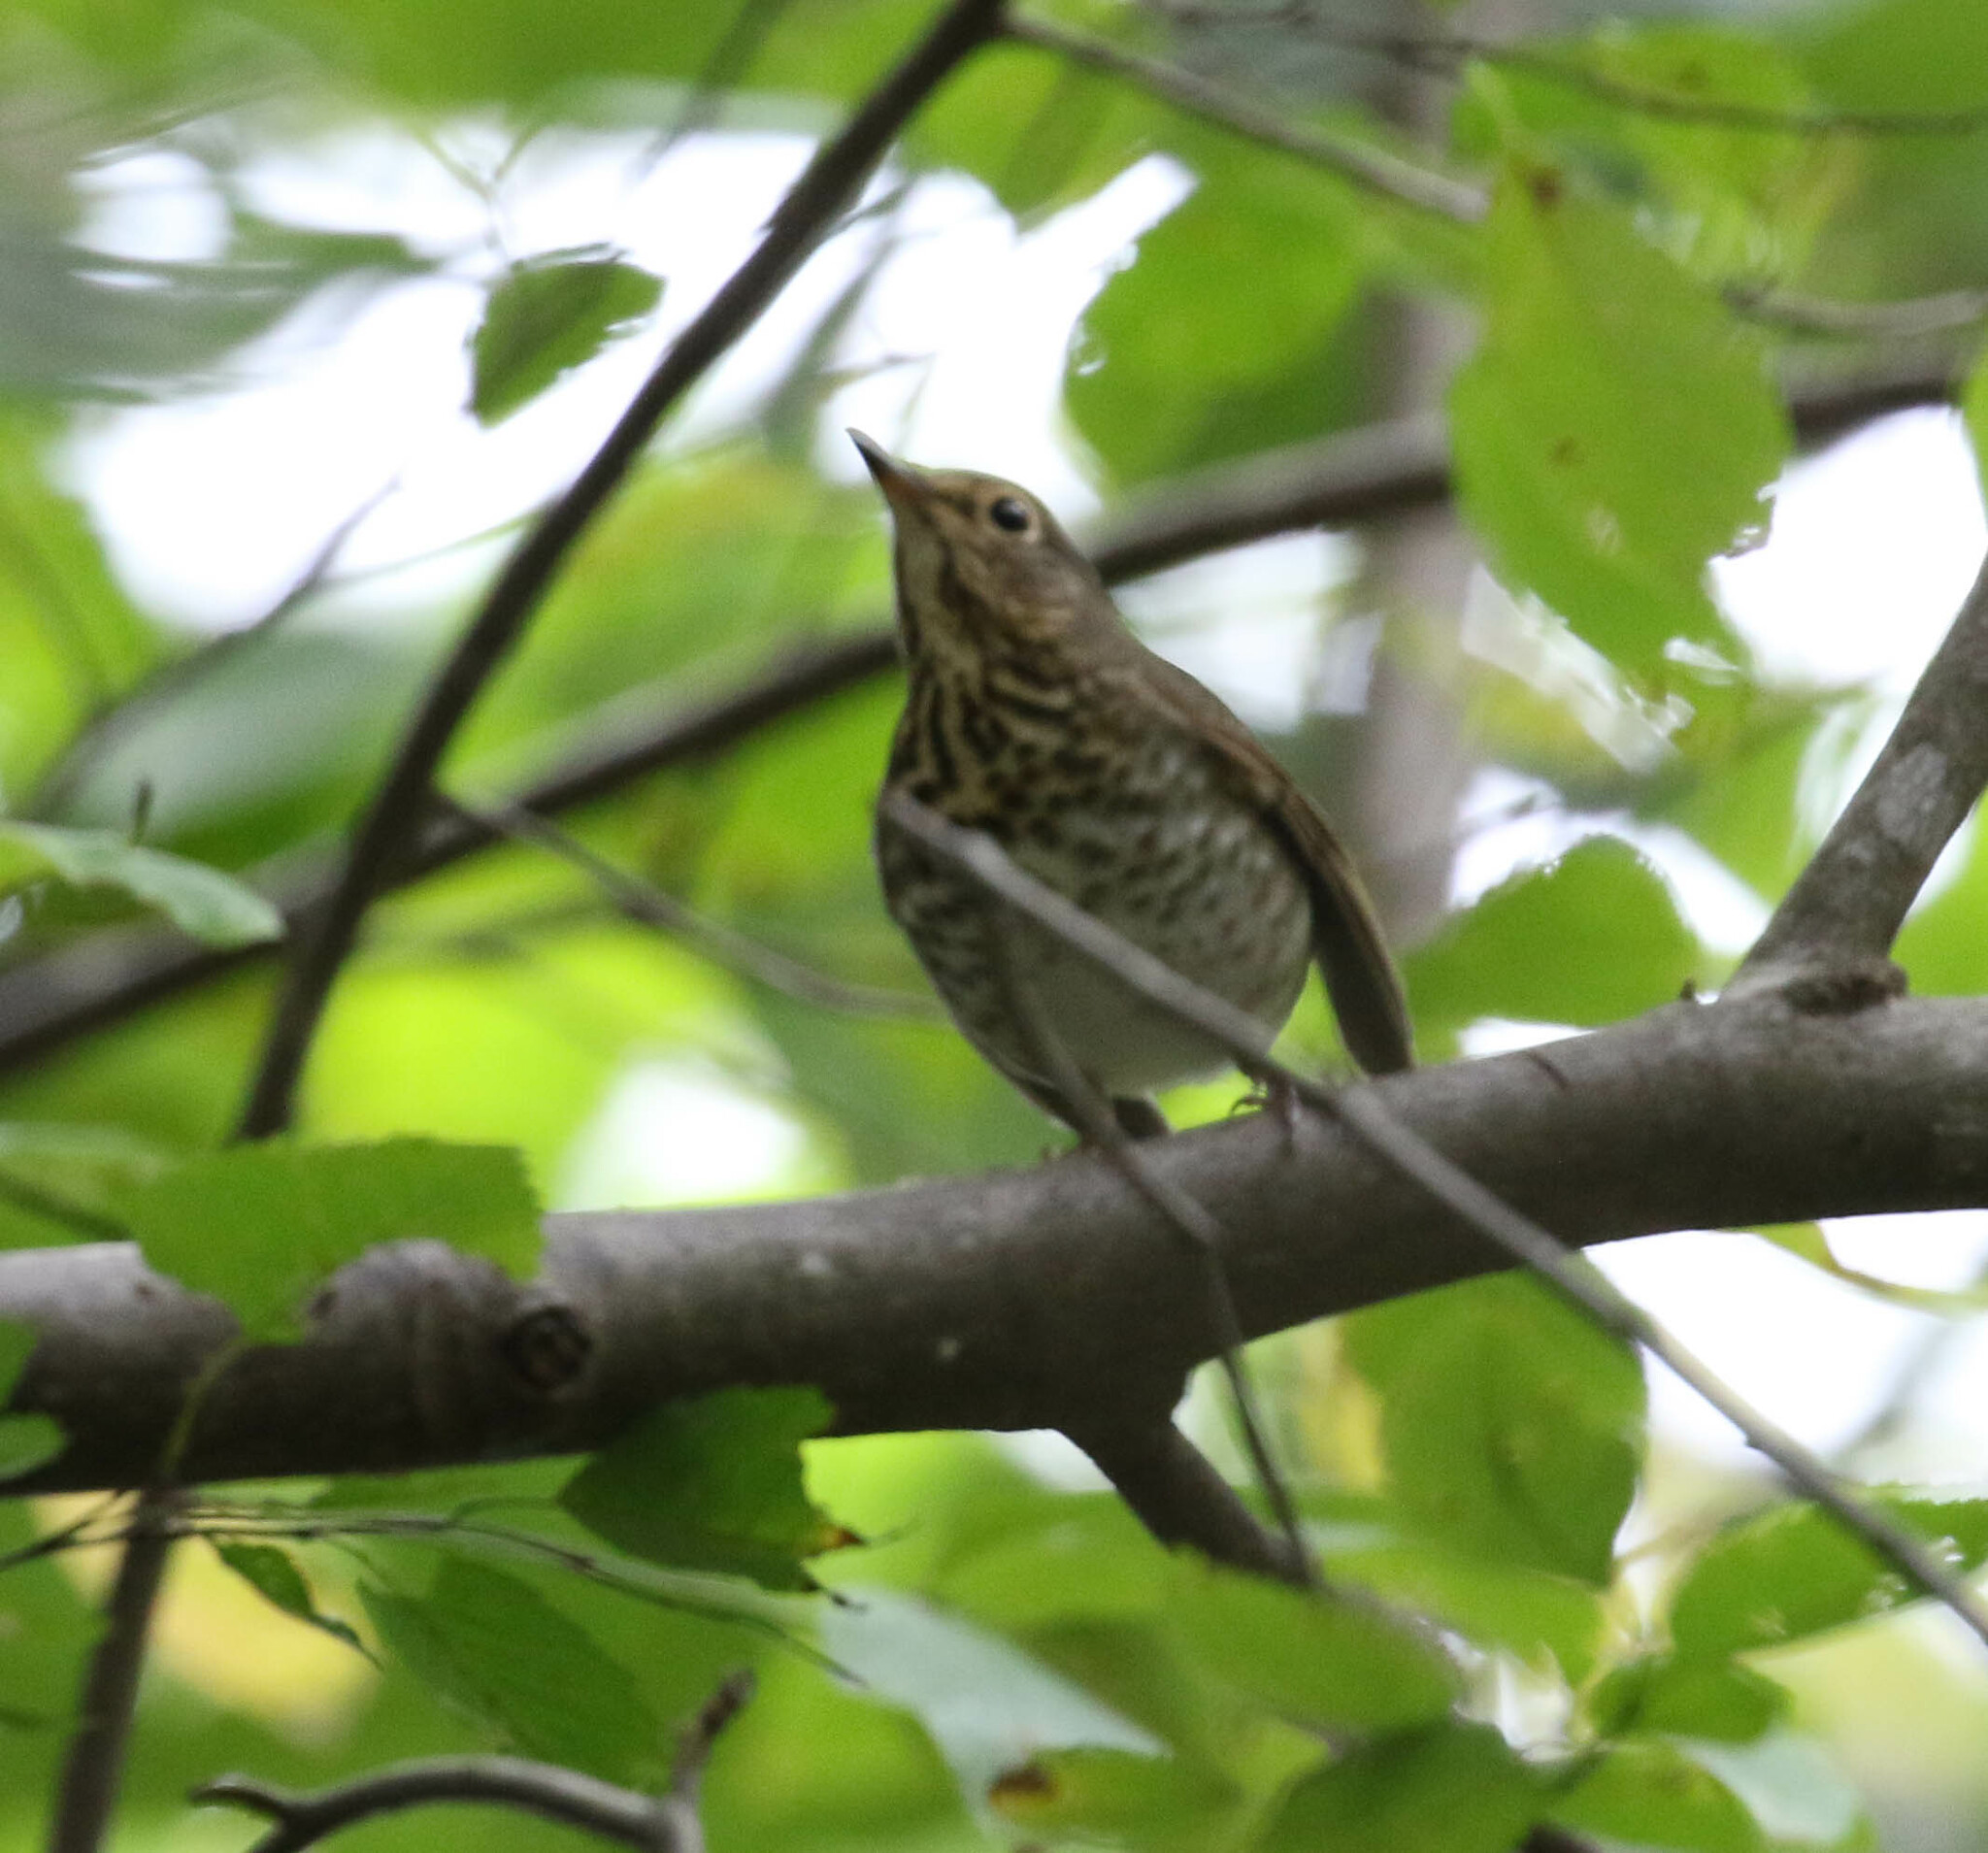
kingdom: Animalia
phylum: Chordata
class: Aves
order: Passeriformes
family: Turdidae
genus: Catharus
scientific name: Catharus ustulatus
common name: Swainson's thrush
